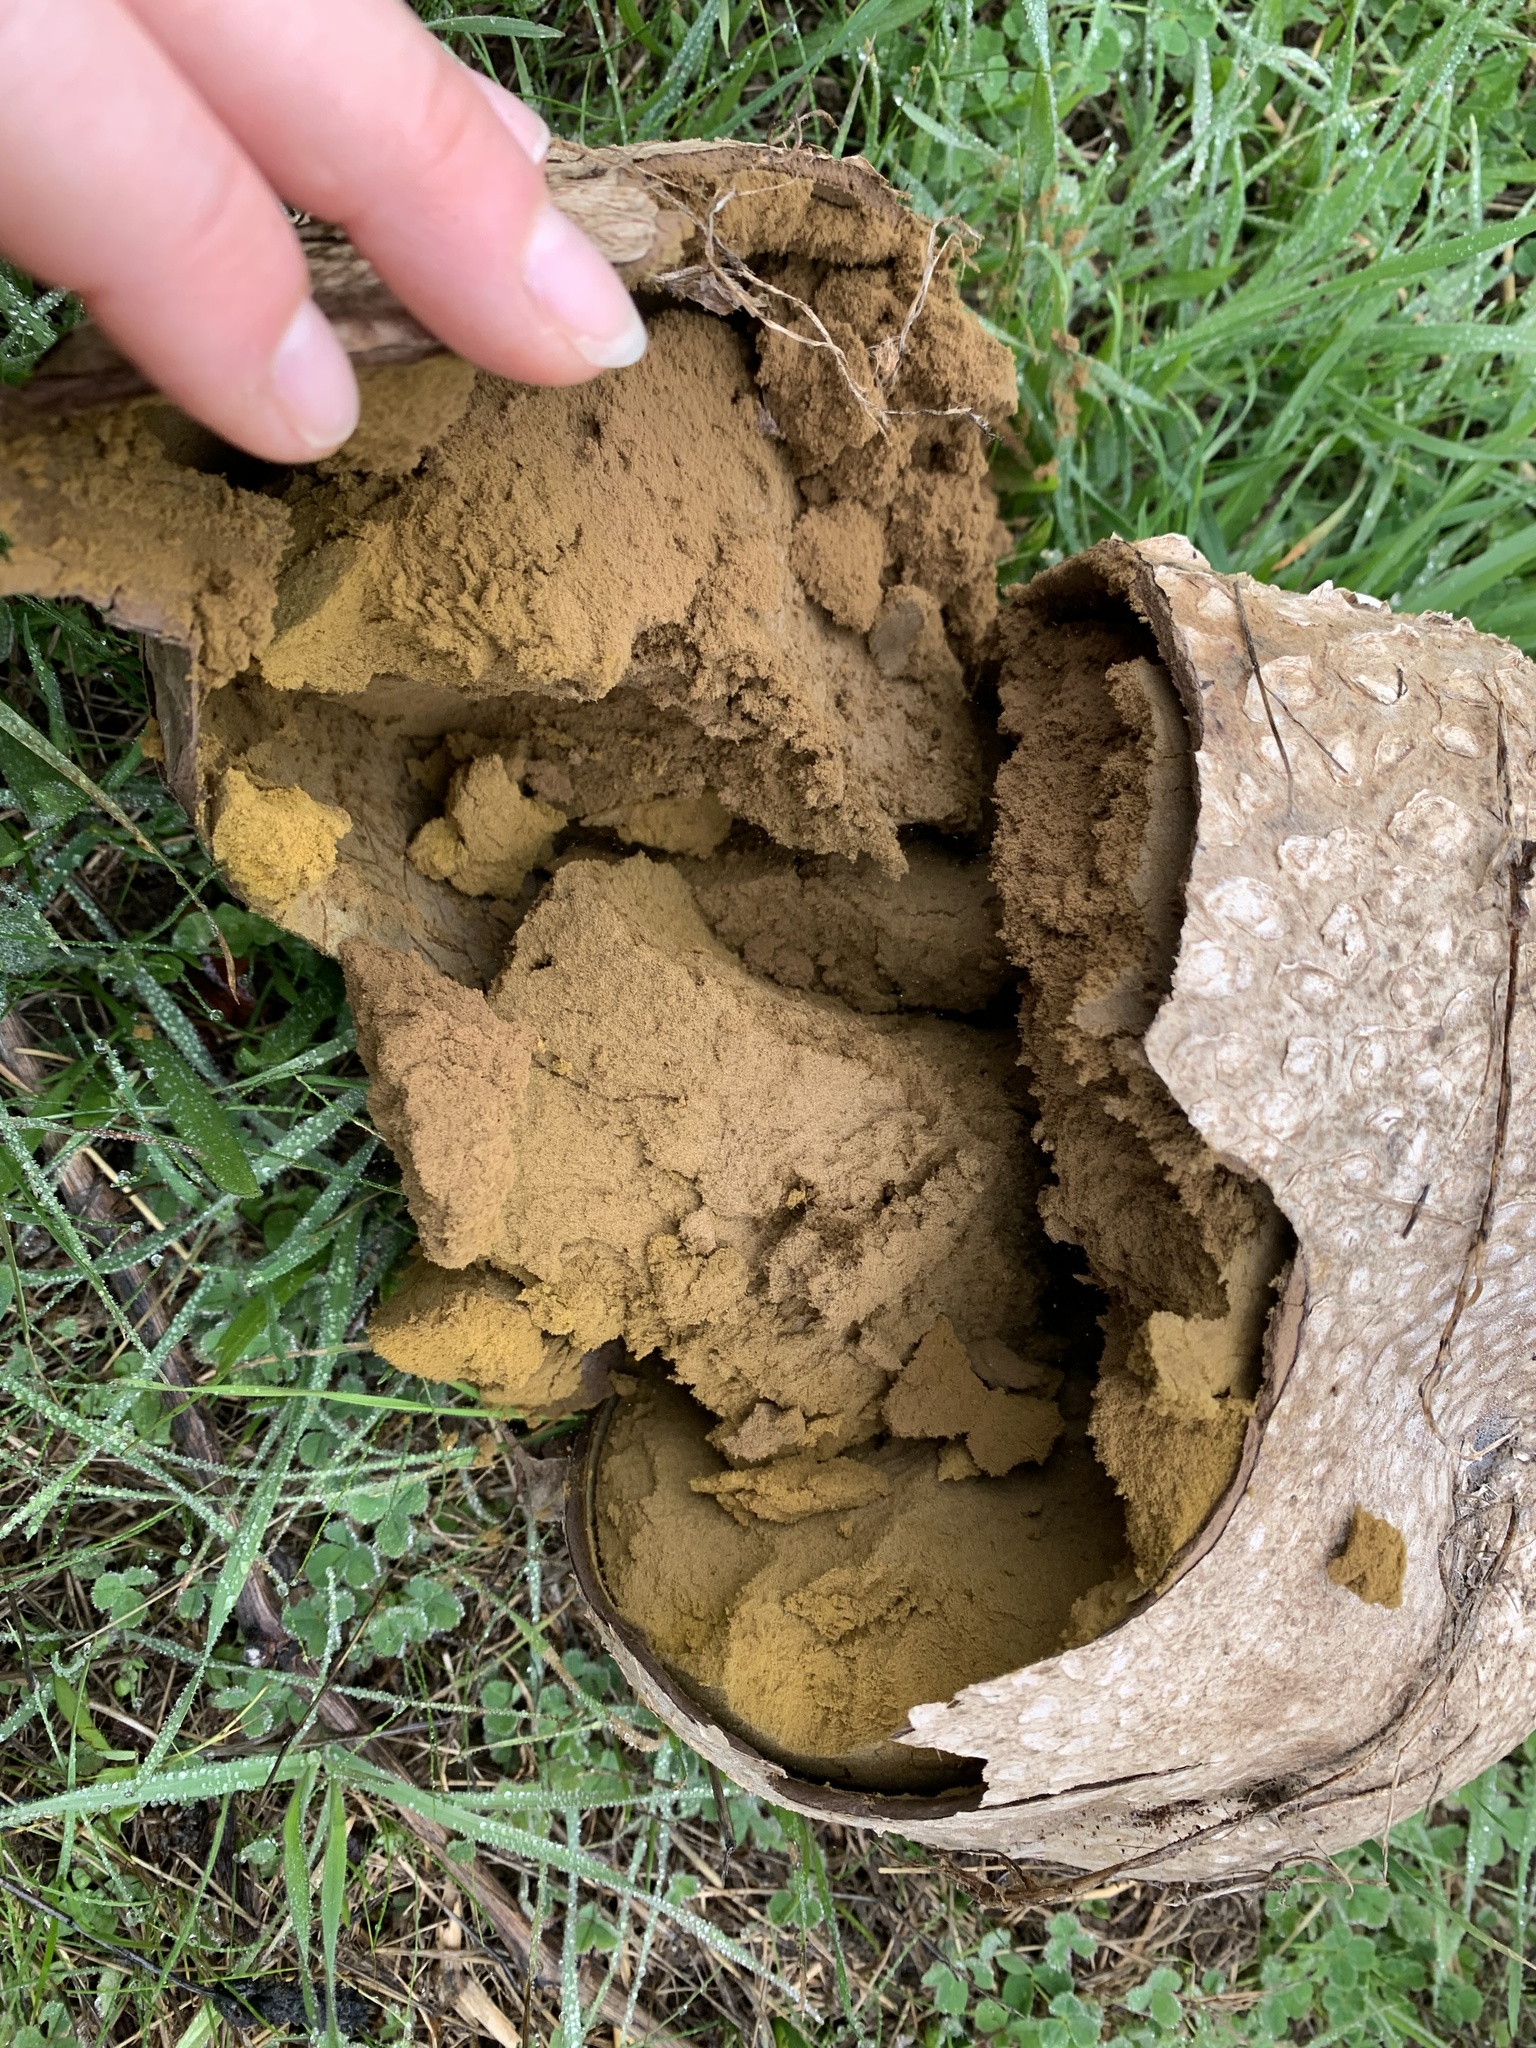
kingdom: Fungi
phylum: Basidiomycota
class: Agaricomycetes
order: Agaricales
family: Lycoperdaceae
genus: Calvatia
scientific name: Calvatia booniana
